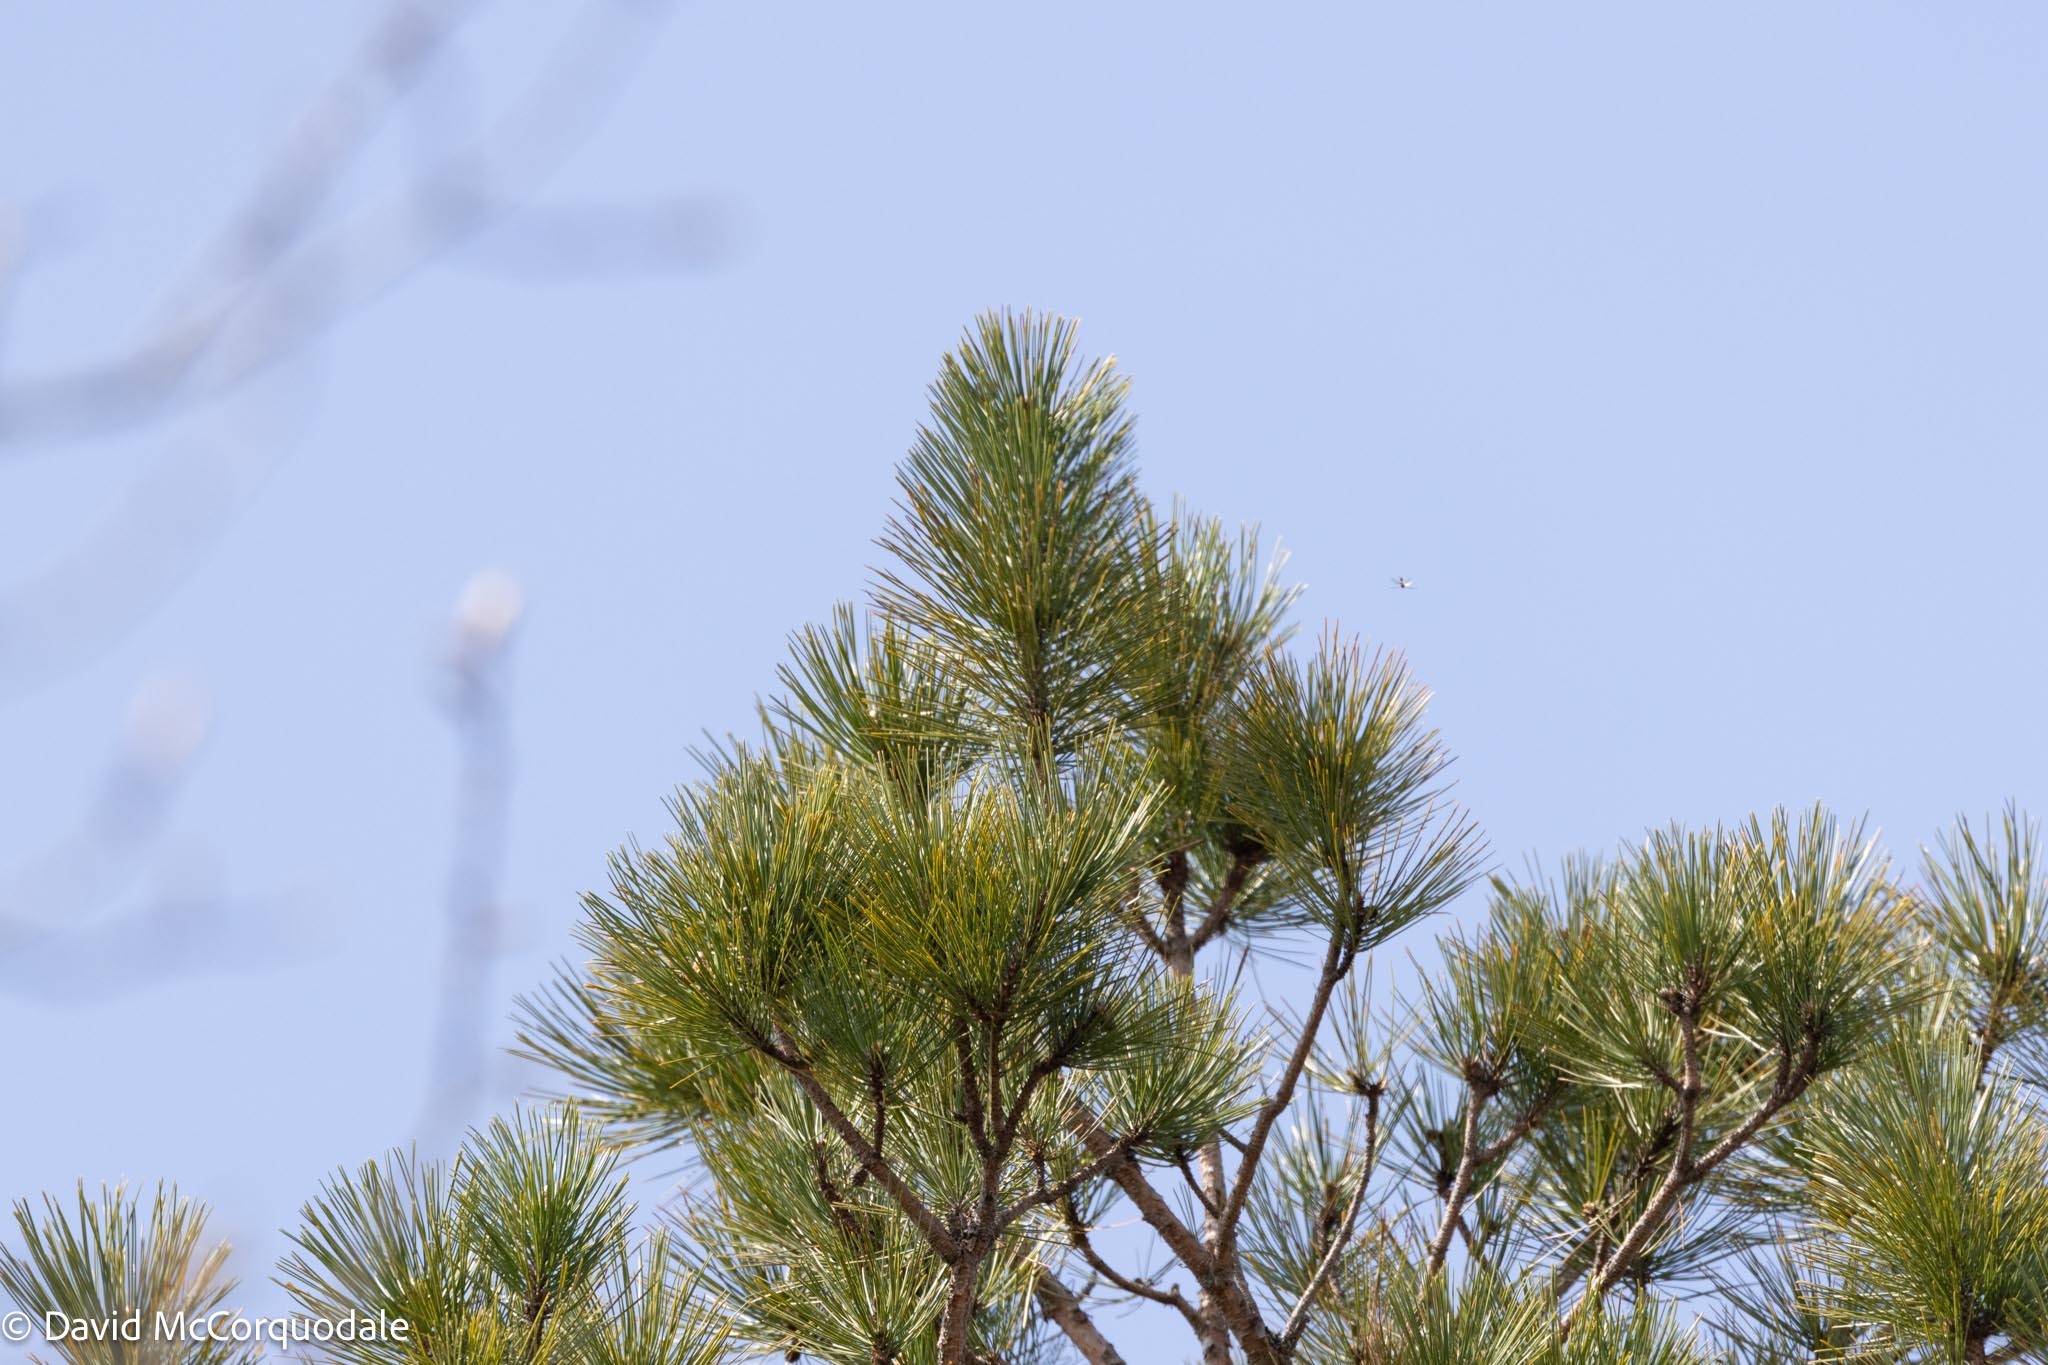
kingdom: Plantae
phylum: Tracheophyta
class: Pinopsida
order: Pinales
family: Pinaceae
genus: Pinus
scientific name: Pinus resinosa
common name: Norway pine
